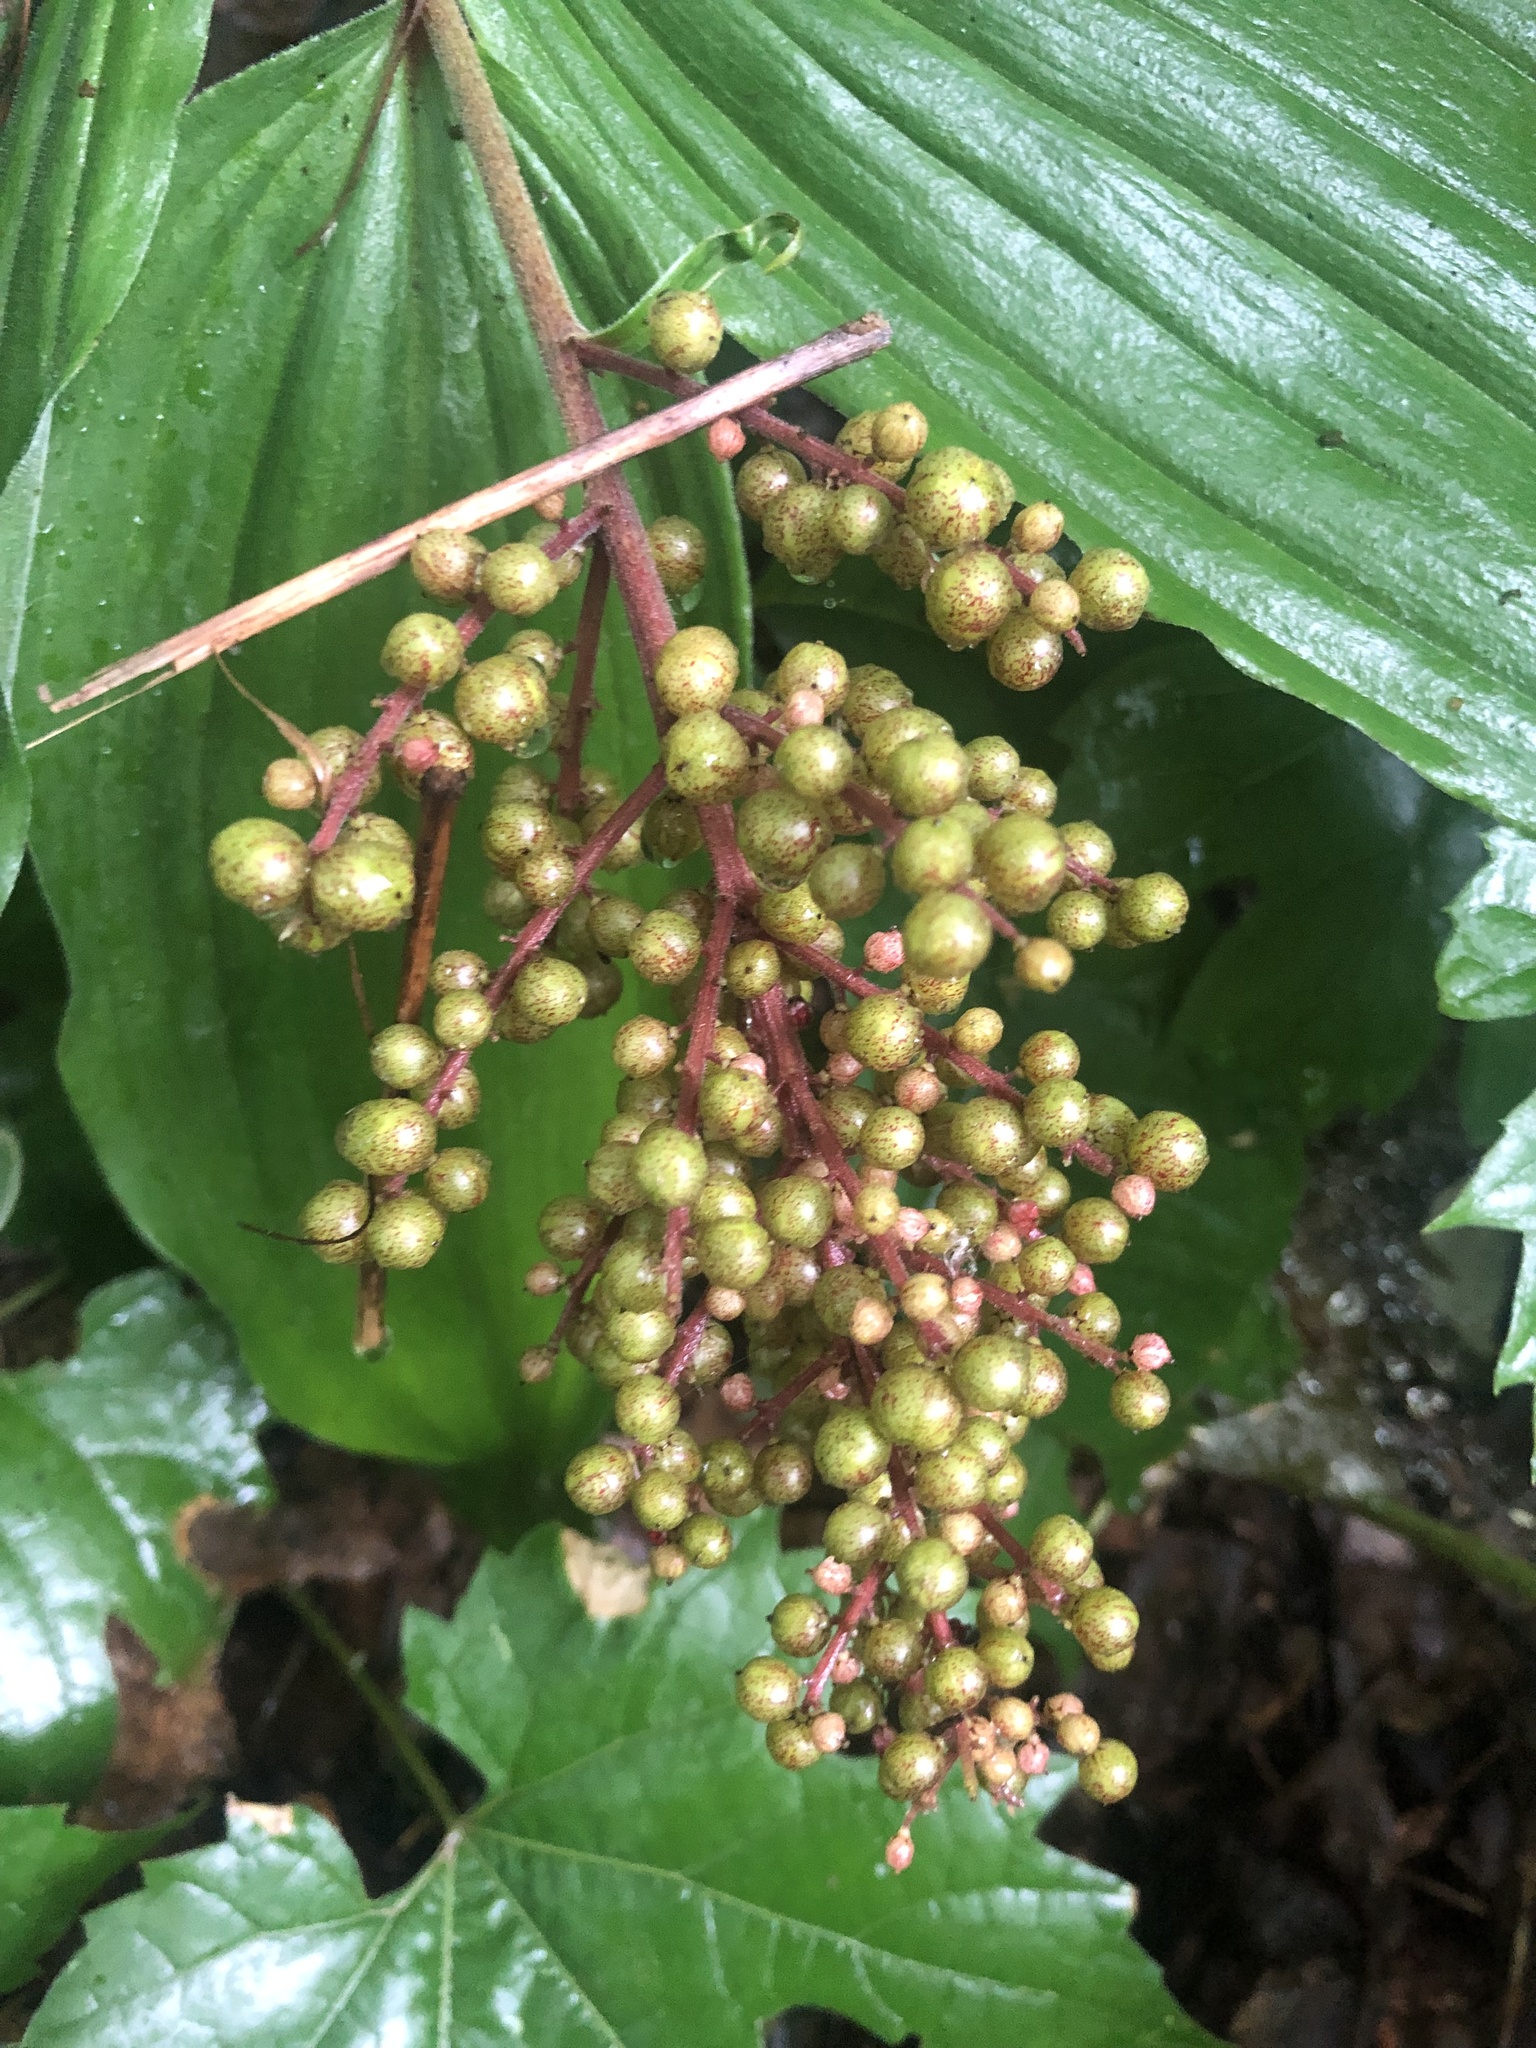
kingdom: Plantae
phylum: Tracheophyta
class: Liliopsida
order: Asparagales
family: Asparagaceae
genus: Maianthemum
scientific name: Maianthemum racemosum
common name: False spikenard
